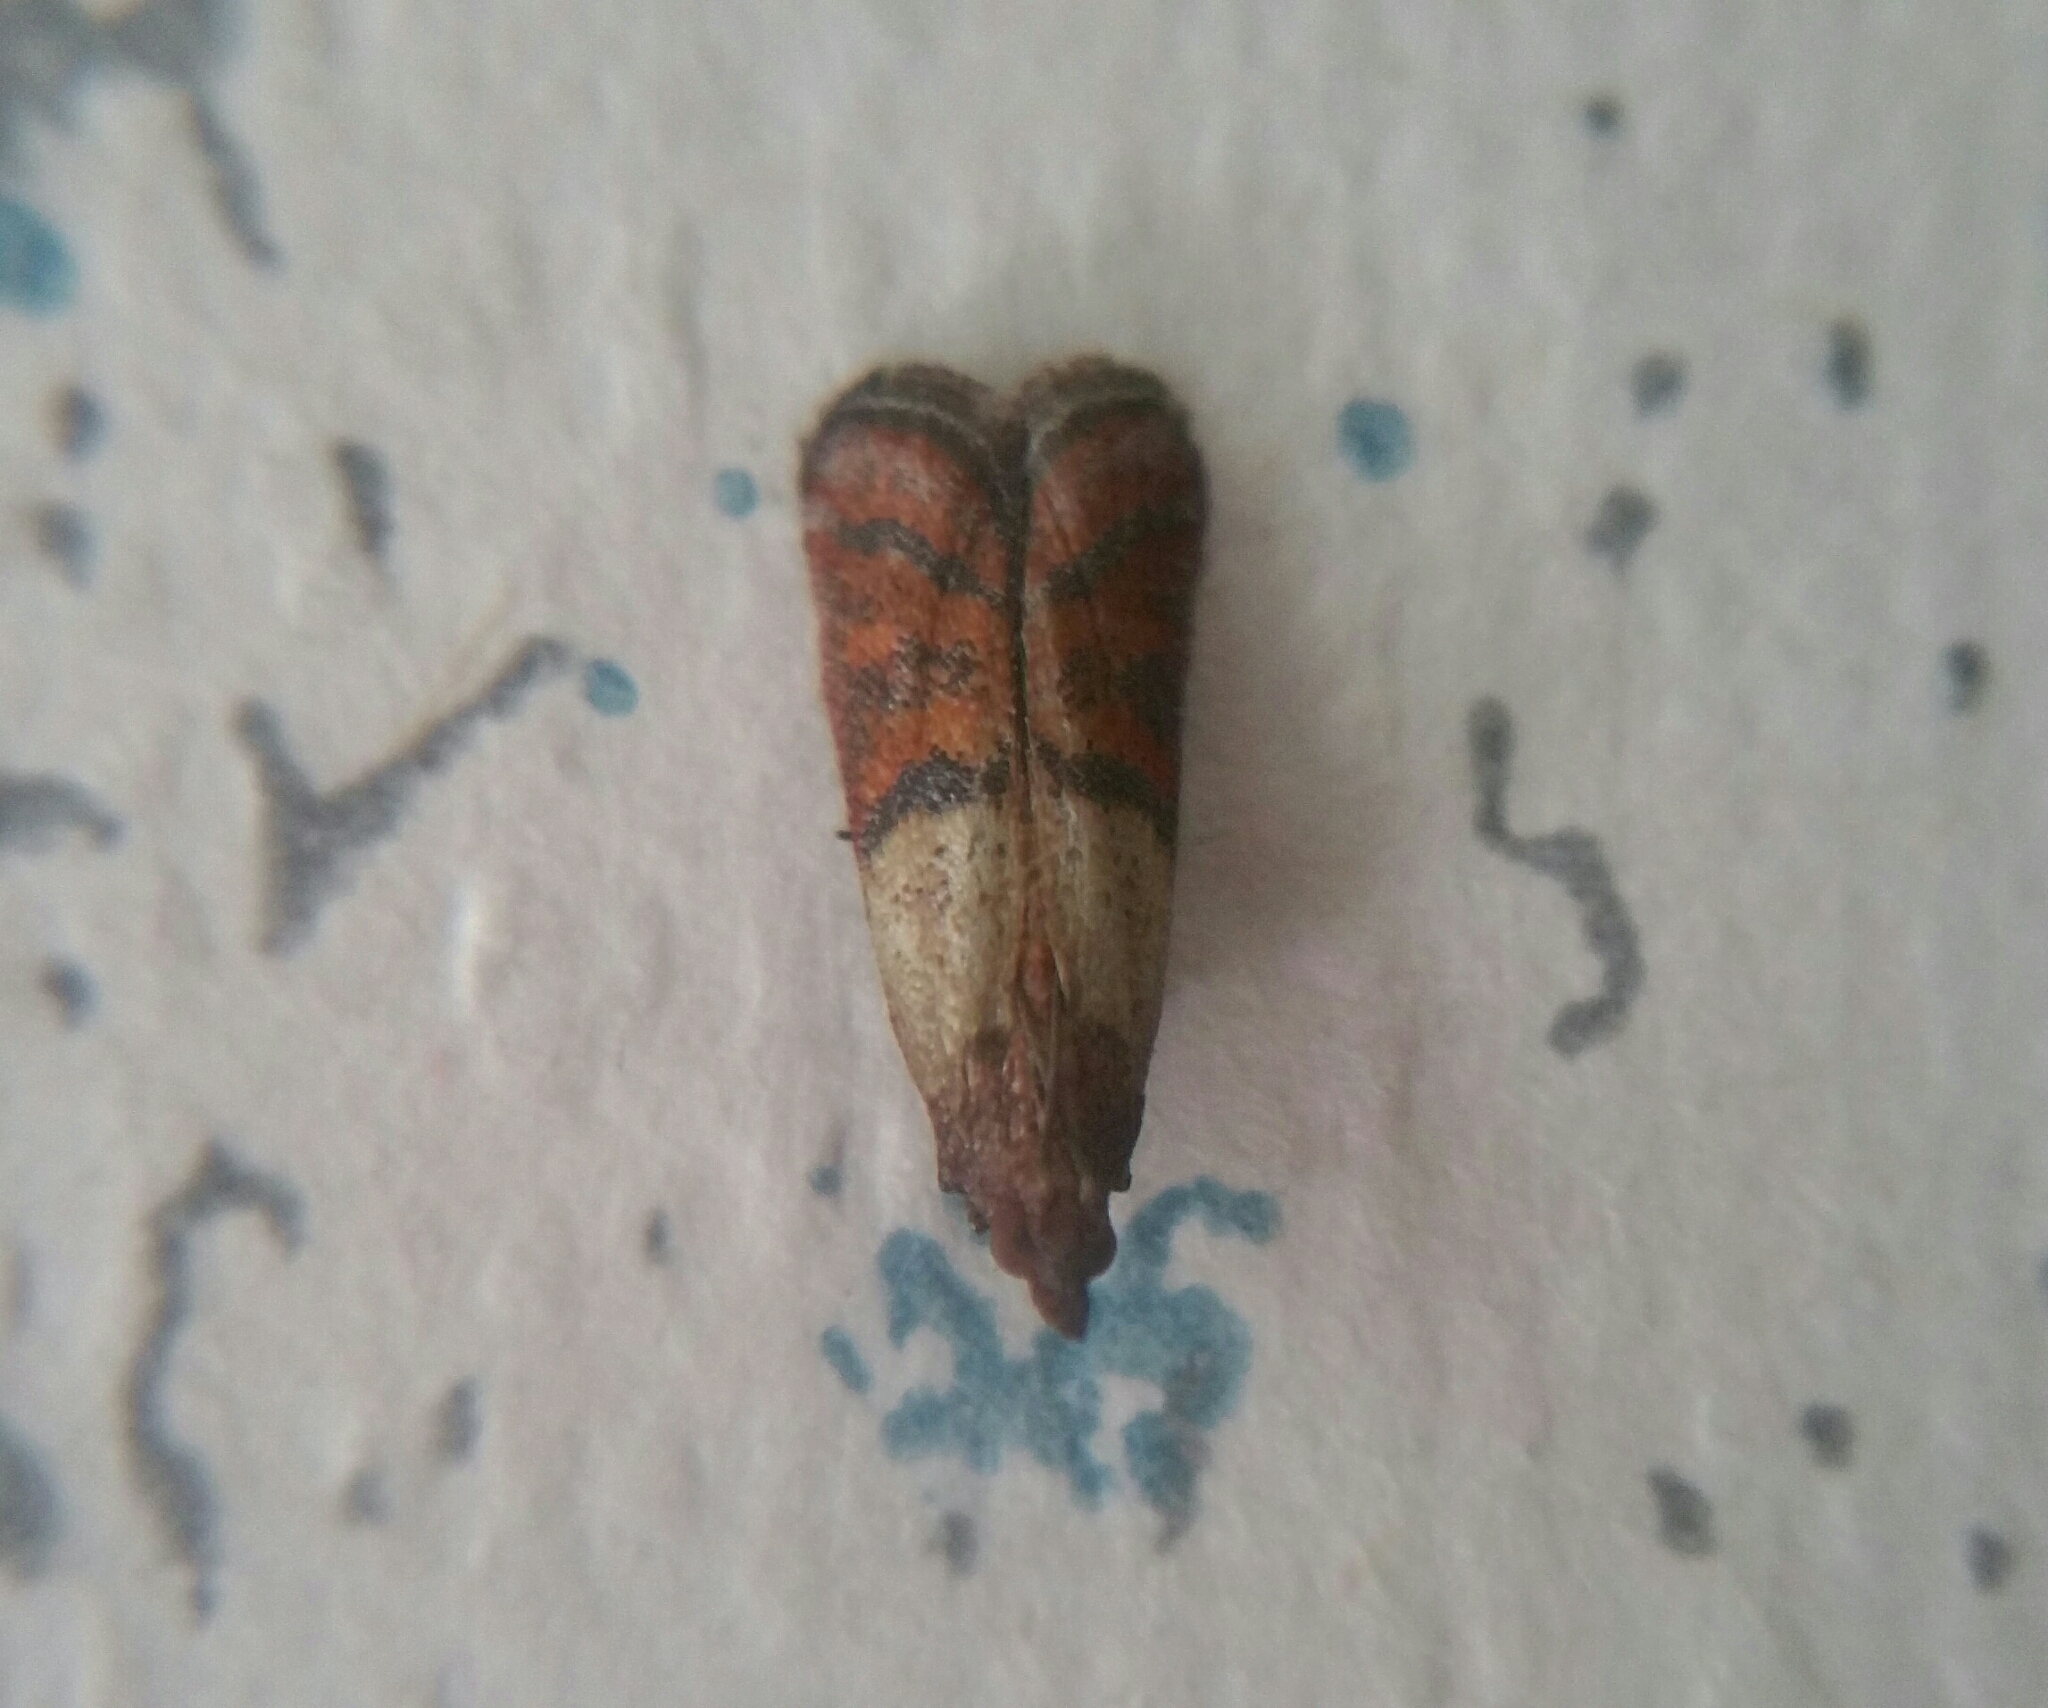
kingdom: Animalia
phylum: Arthropoda
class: Insecta
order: Lepidoptera
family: Pyralidae
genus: Plodia
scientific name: Plodia interpunctella
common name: Indian meal moth
